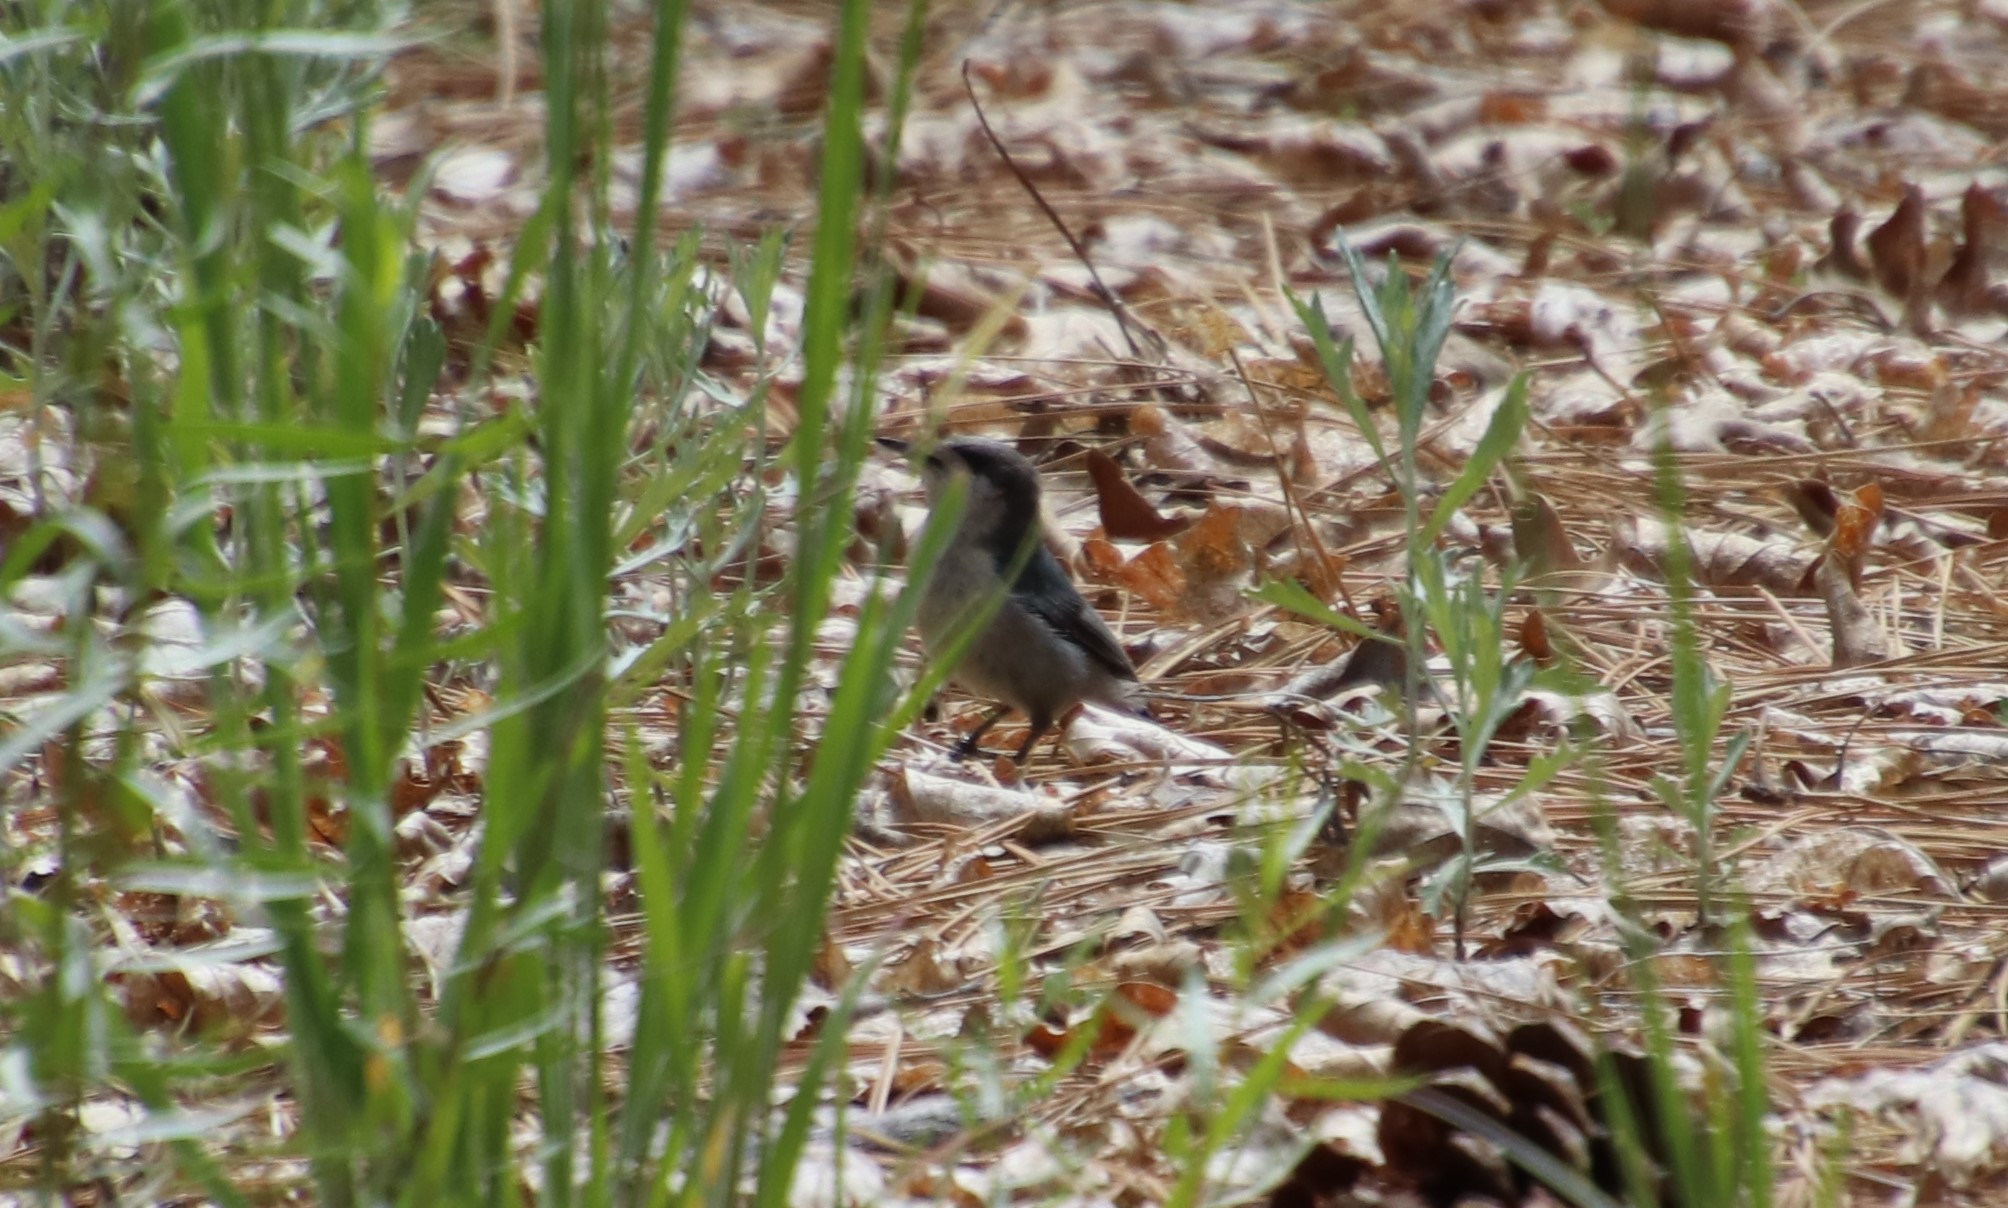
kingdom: Animalia
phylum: Chordata
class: Aves
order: Passeriformes
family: Sittidae
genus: Sitta
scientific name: Sitta pygmaea
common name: Pygmy nuthatch
